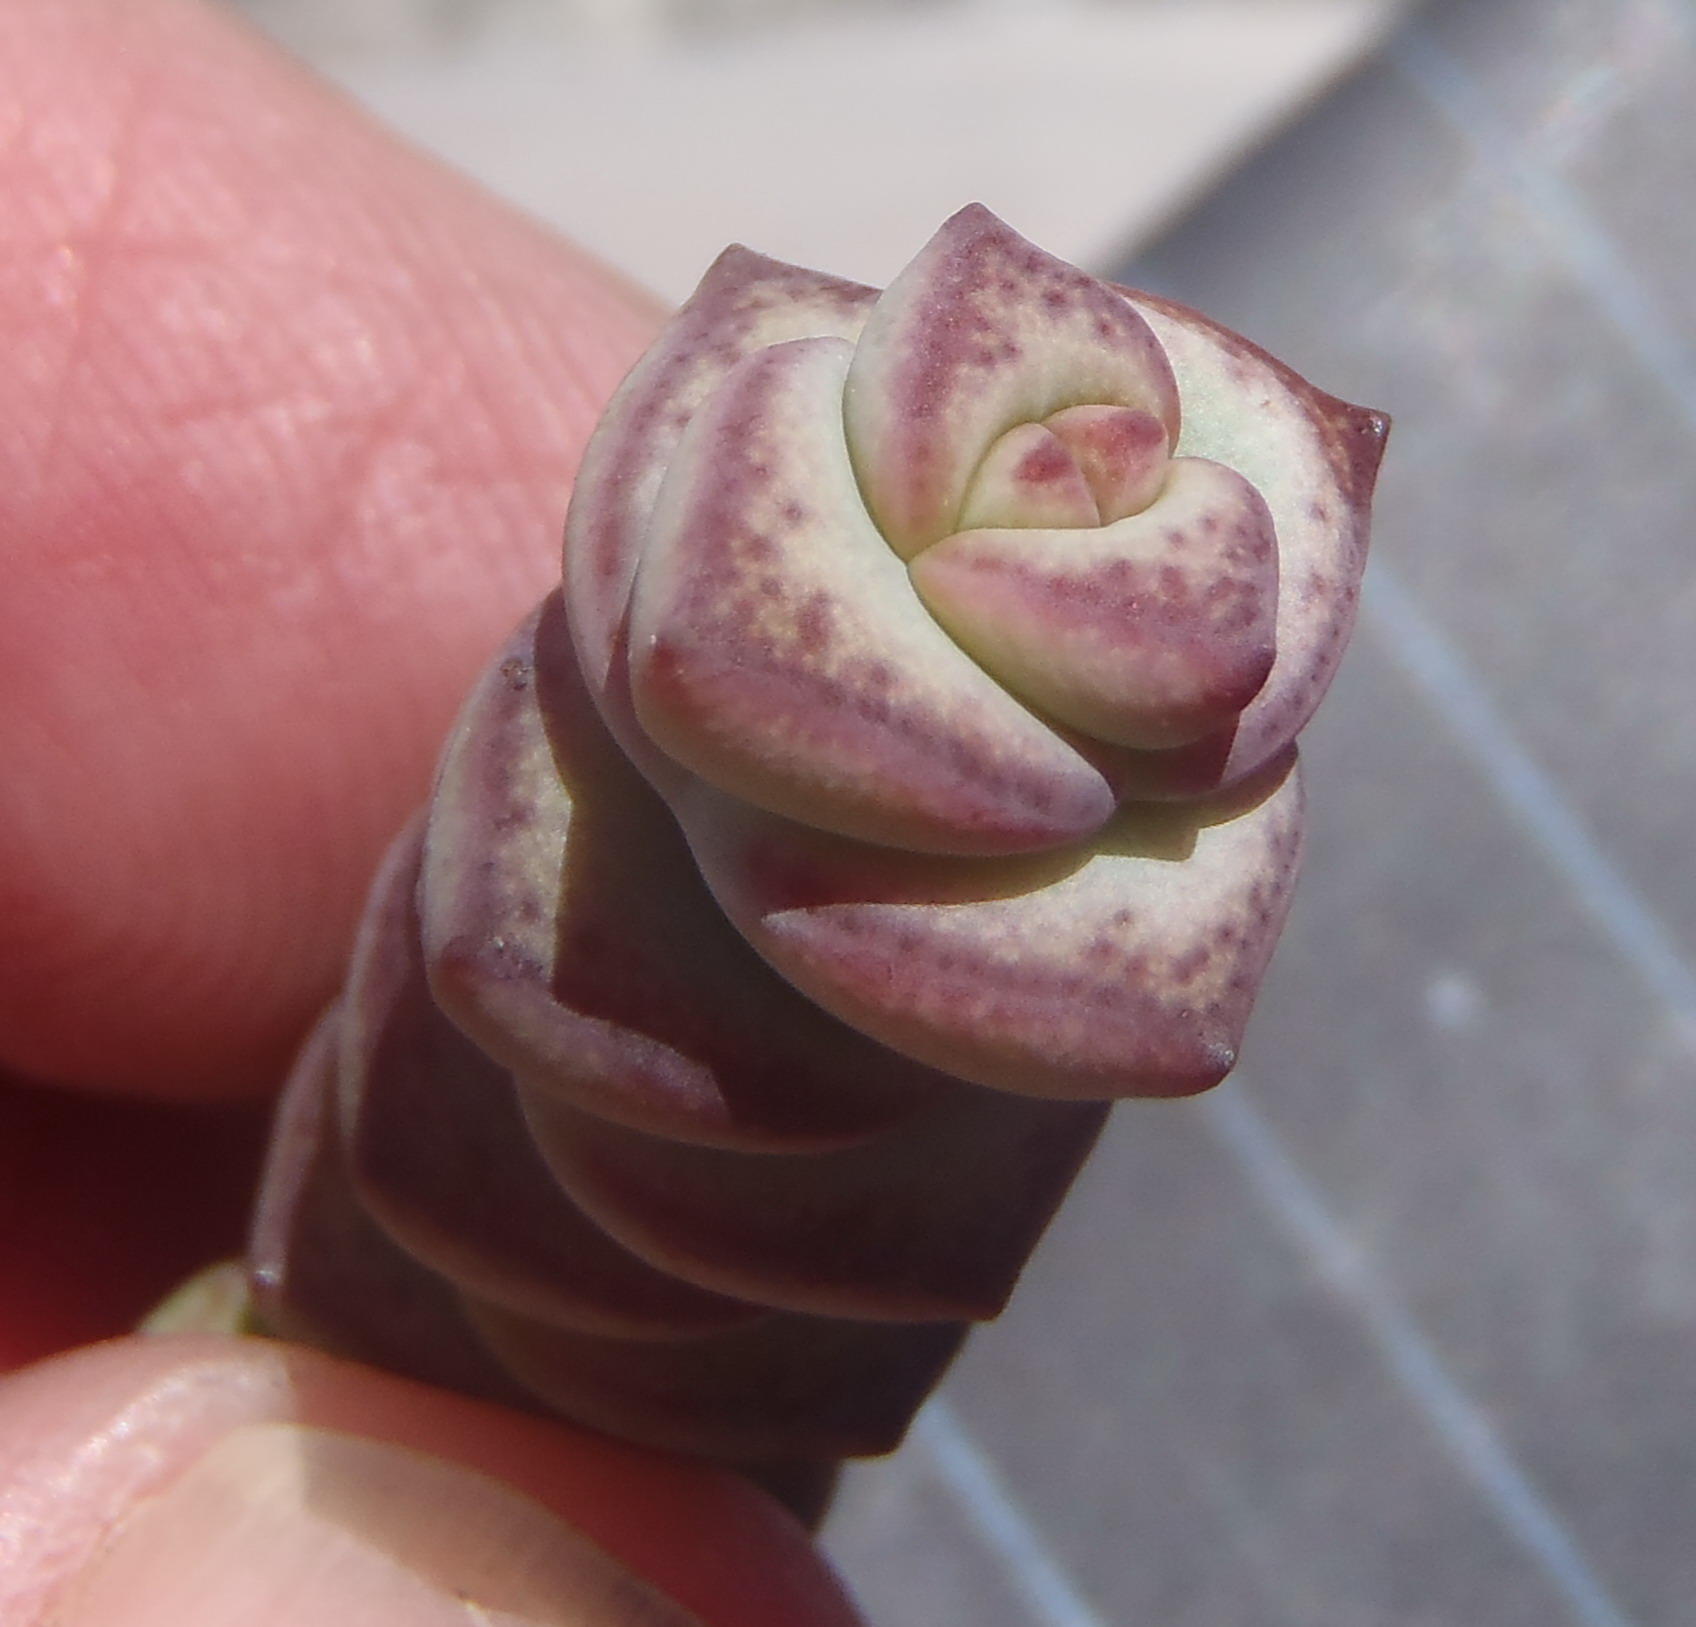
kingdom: Plantae
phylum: Tracheophyta
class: Magnoliopsida
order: Saxifragales
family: Crassulaceae
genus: Crassula
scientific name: Crassula perforata
